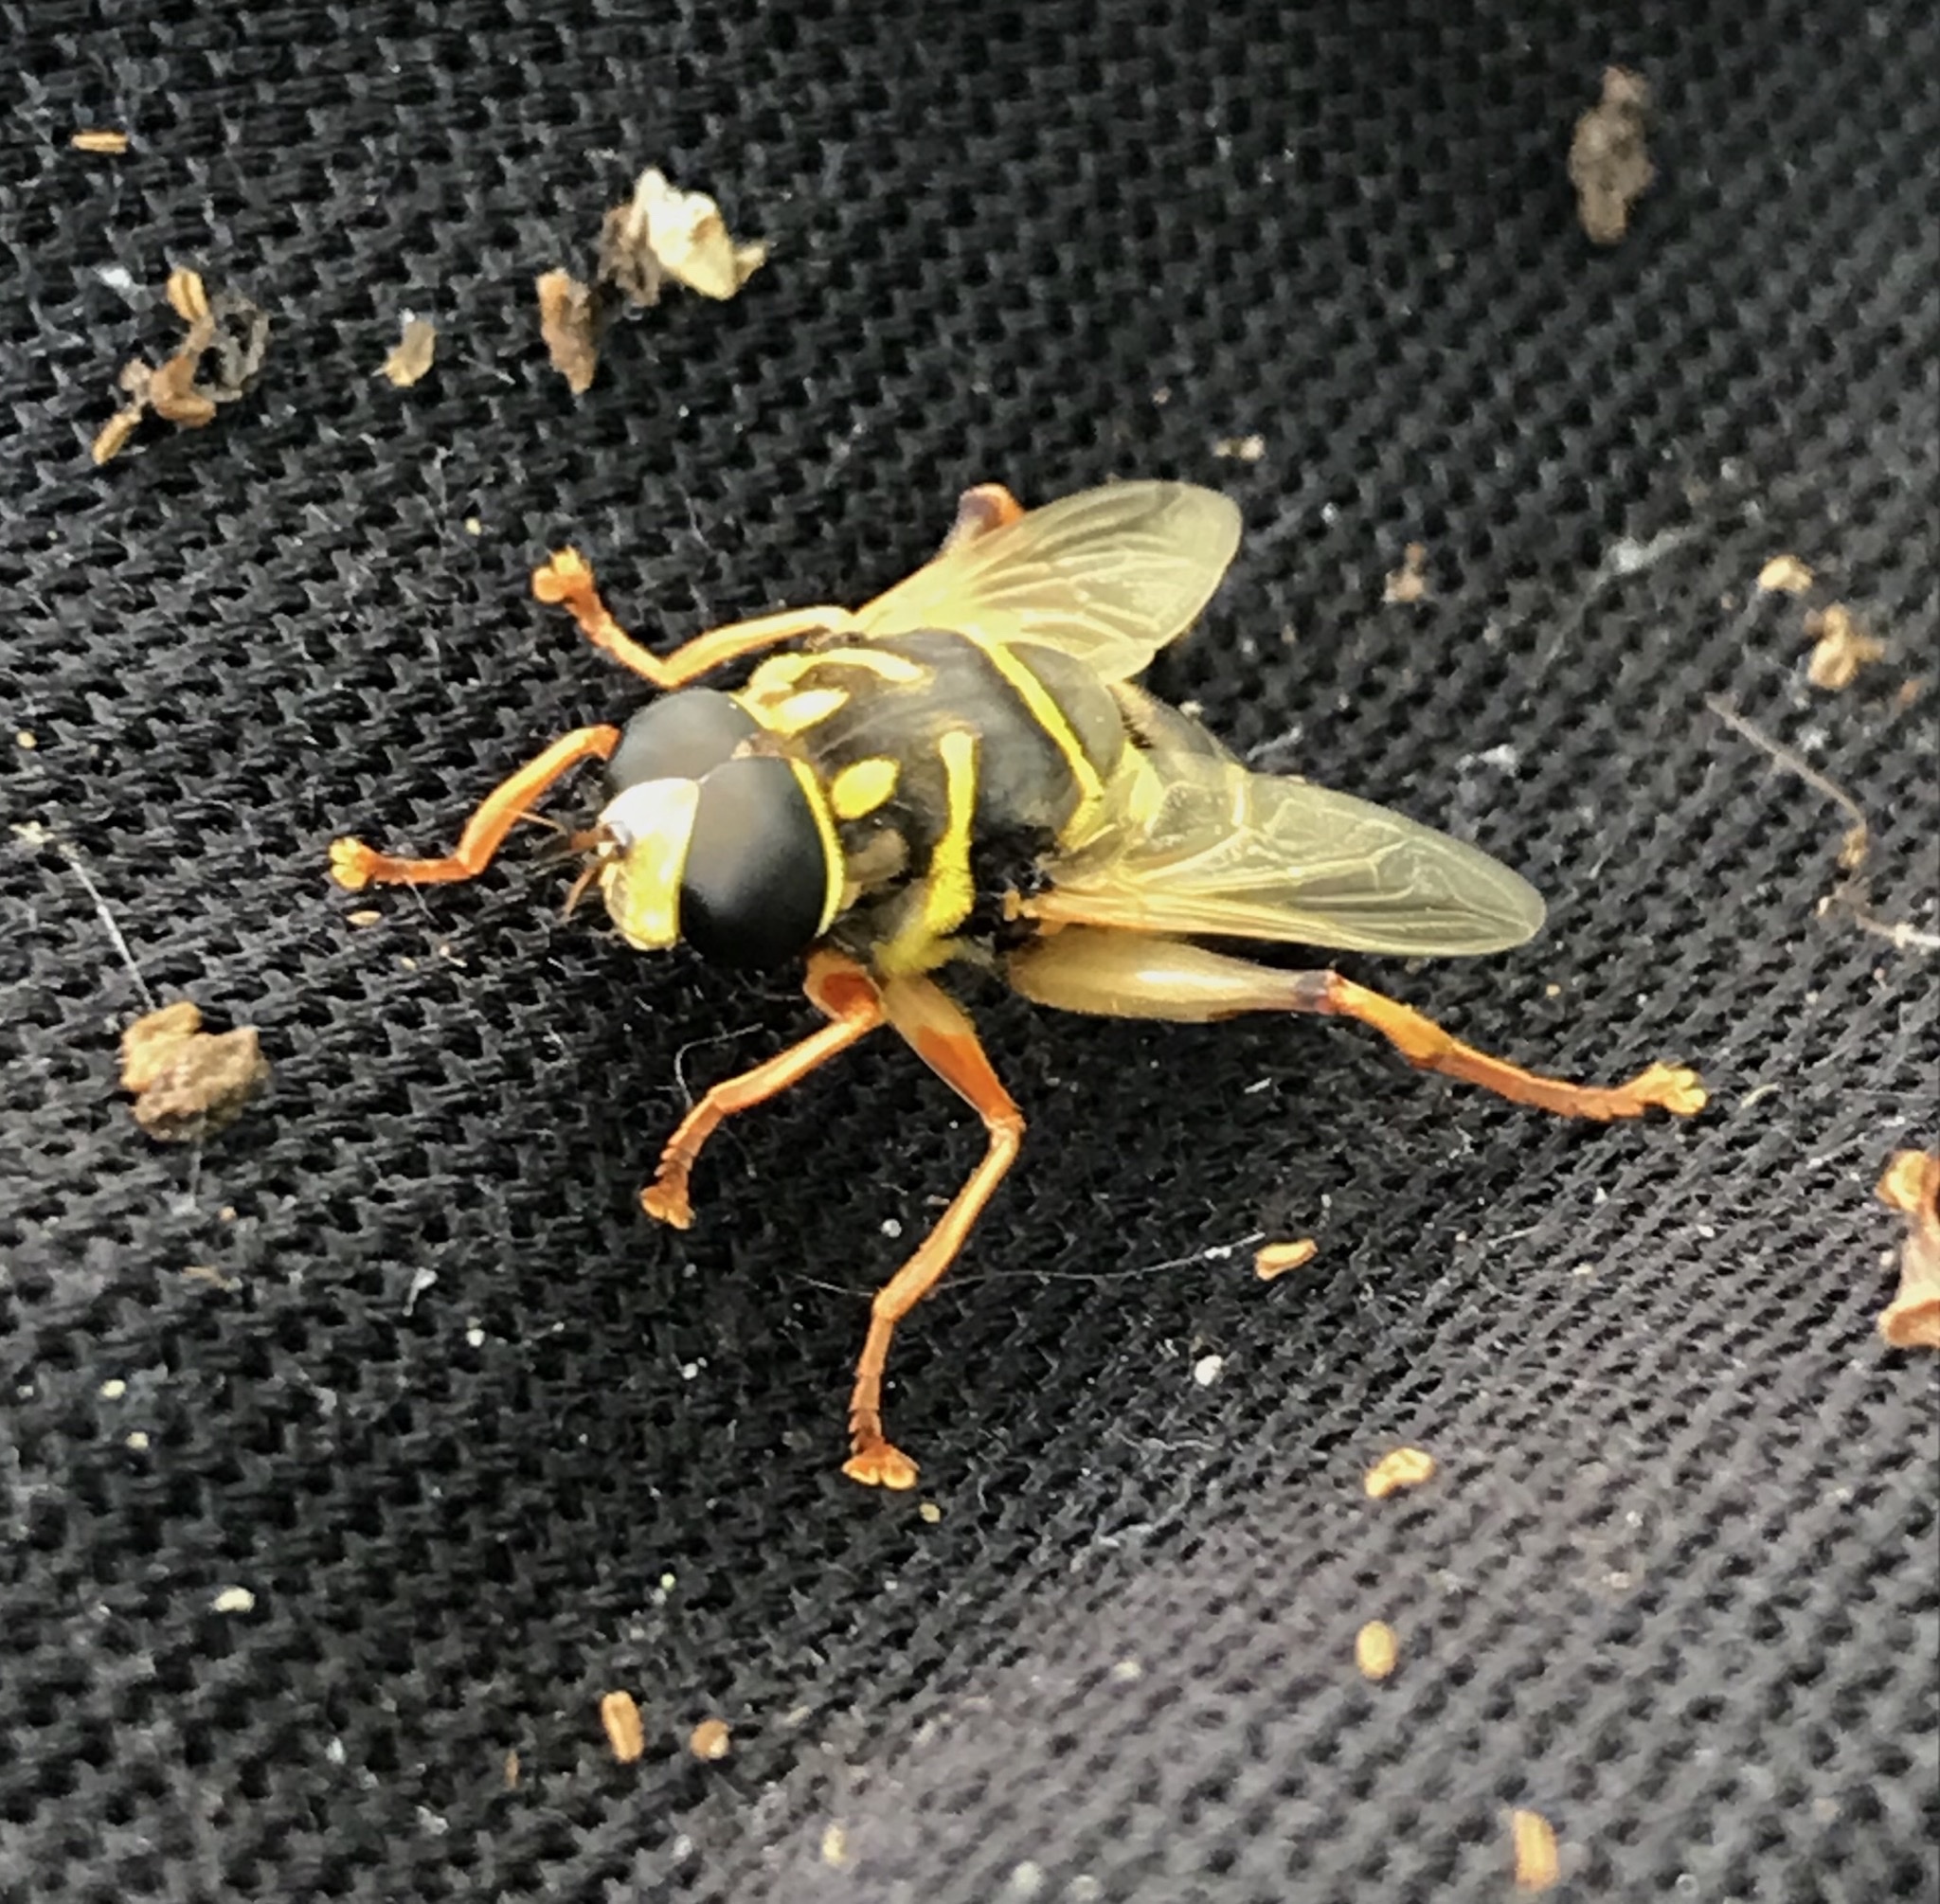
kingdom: Animalia
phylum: Arthropoda
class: Insecta
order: Diptera
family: Syrphidae
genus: Meromacrus
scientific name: Meromacrus acutus
